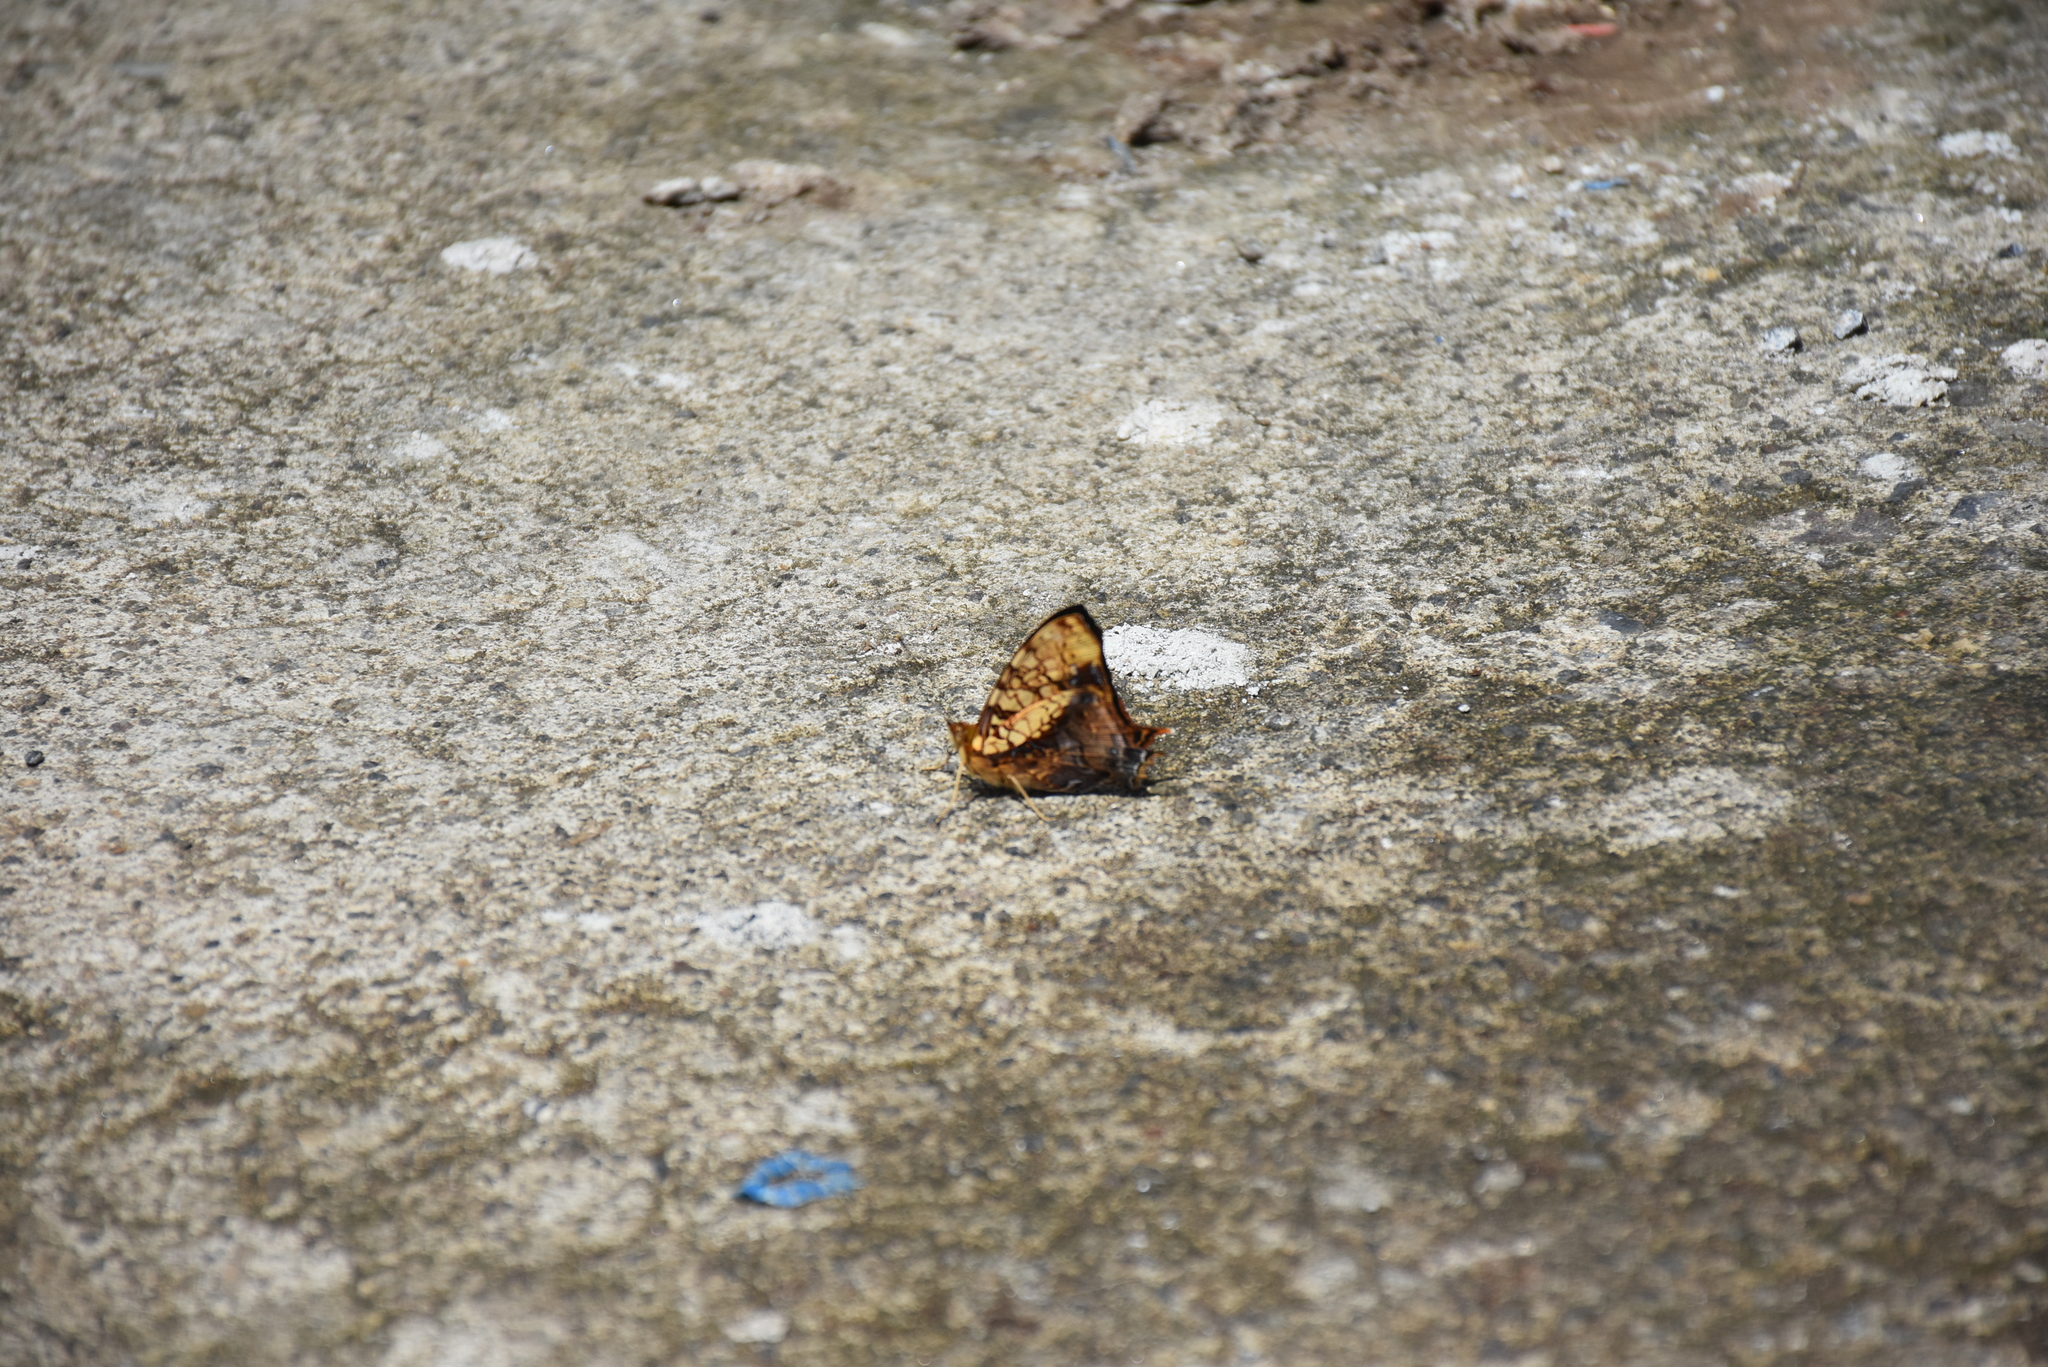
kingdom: Animalia
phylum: Arthropoda
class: Insecta
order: Lepidoptera
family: Nymphalidae
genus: Hypanartia
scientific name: Hypanartia lethe
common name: Orange mapwing
